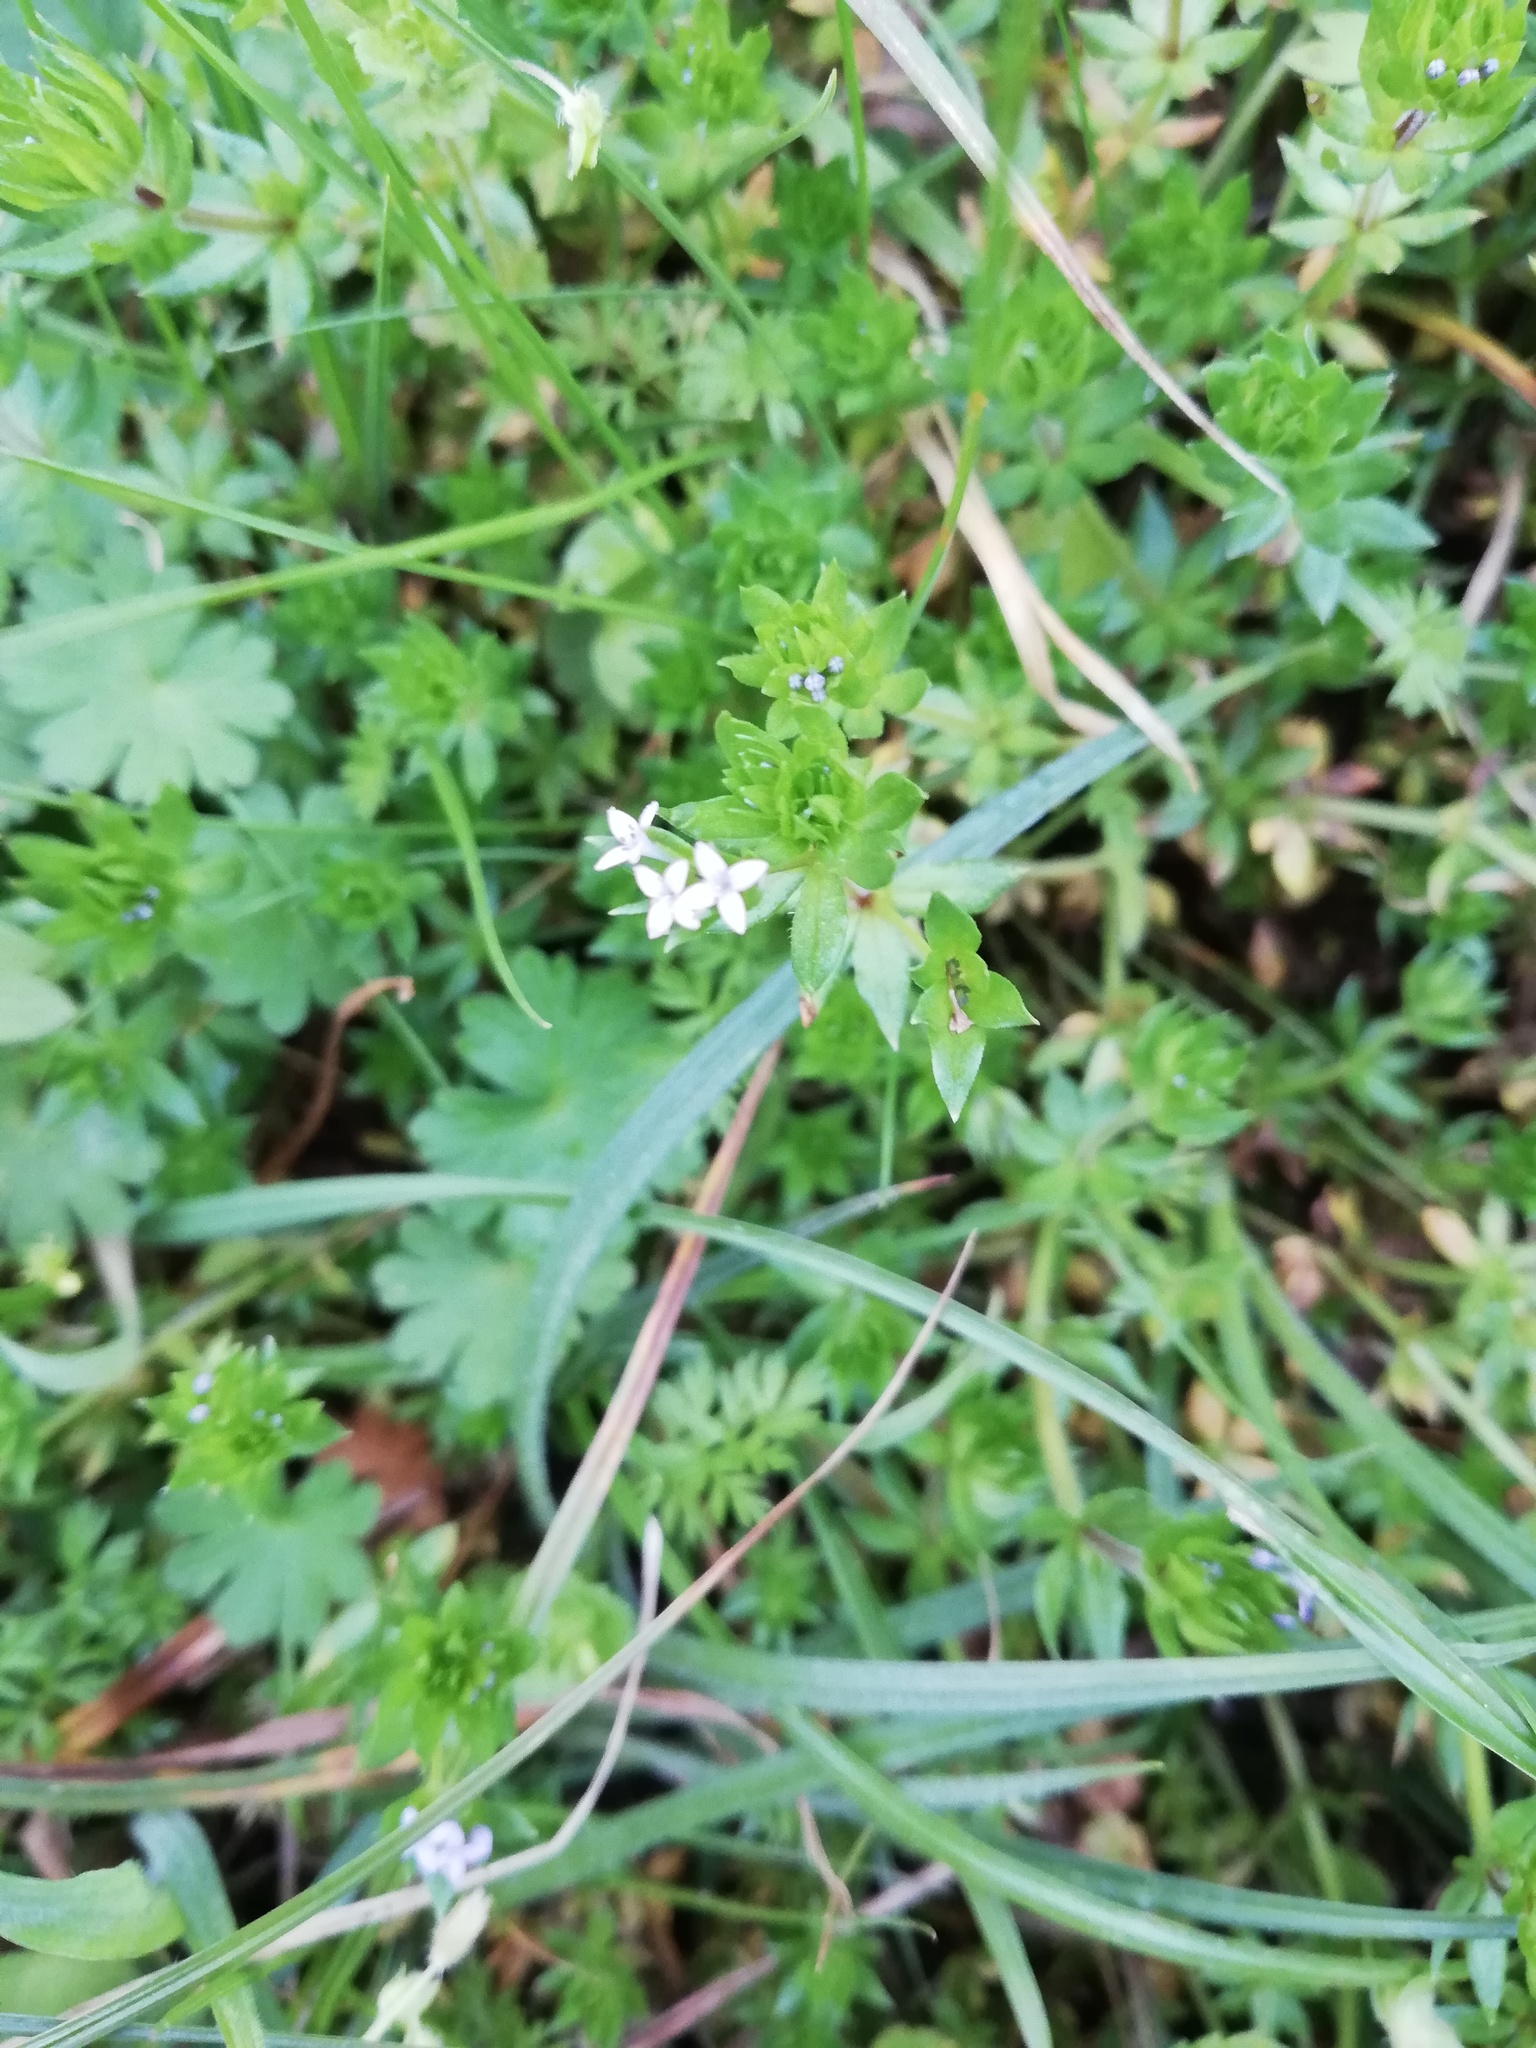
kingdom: Plantae
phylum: Tracheophyta
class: Magnoliopsida
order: Gentianales
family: Rubiaceae
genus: Sherardia
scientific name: Sherardia arvensis
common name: Field madder
